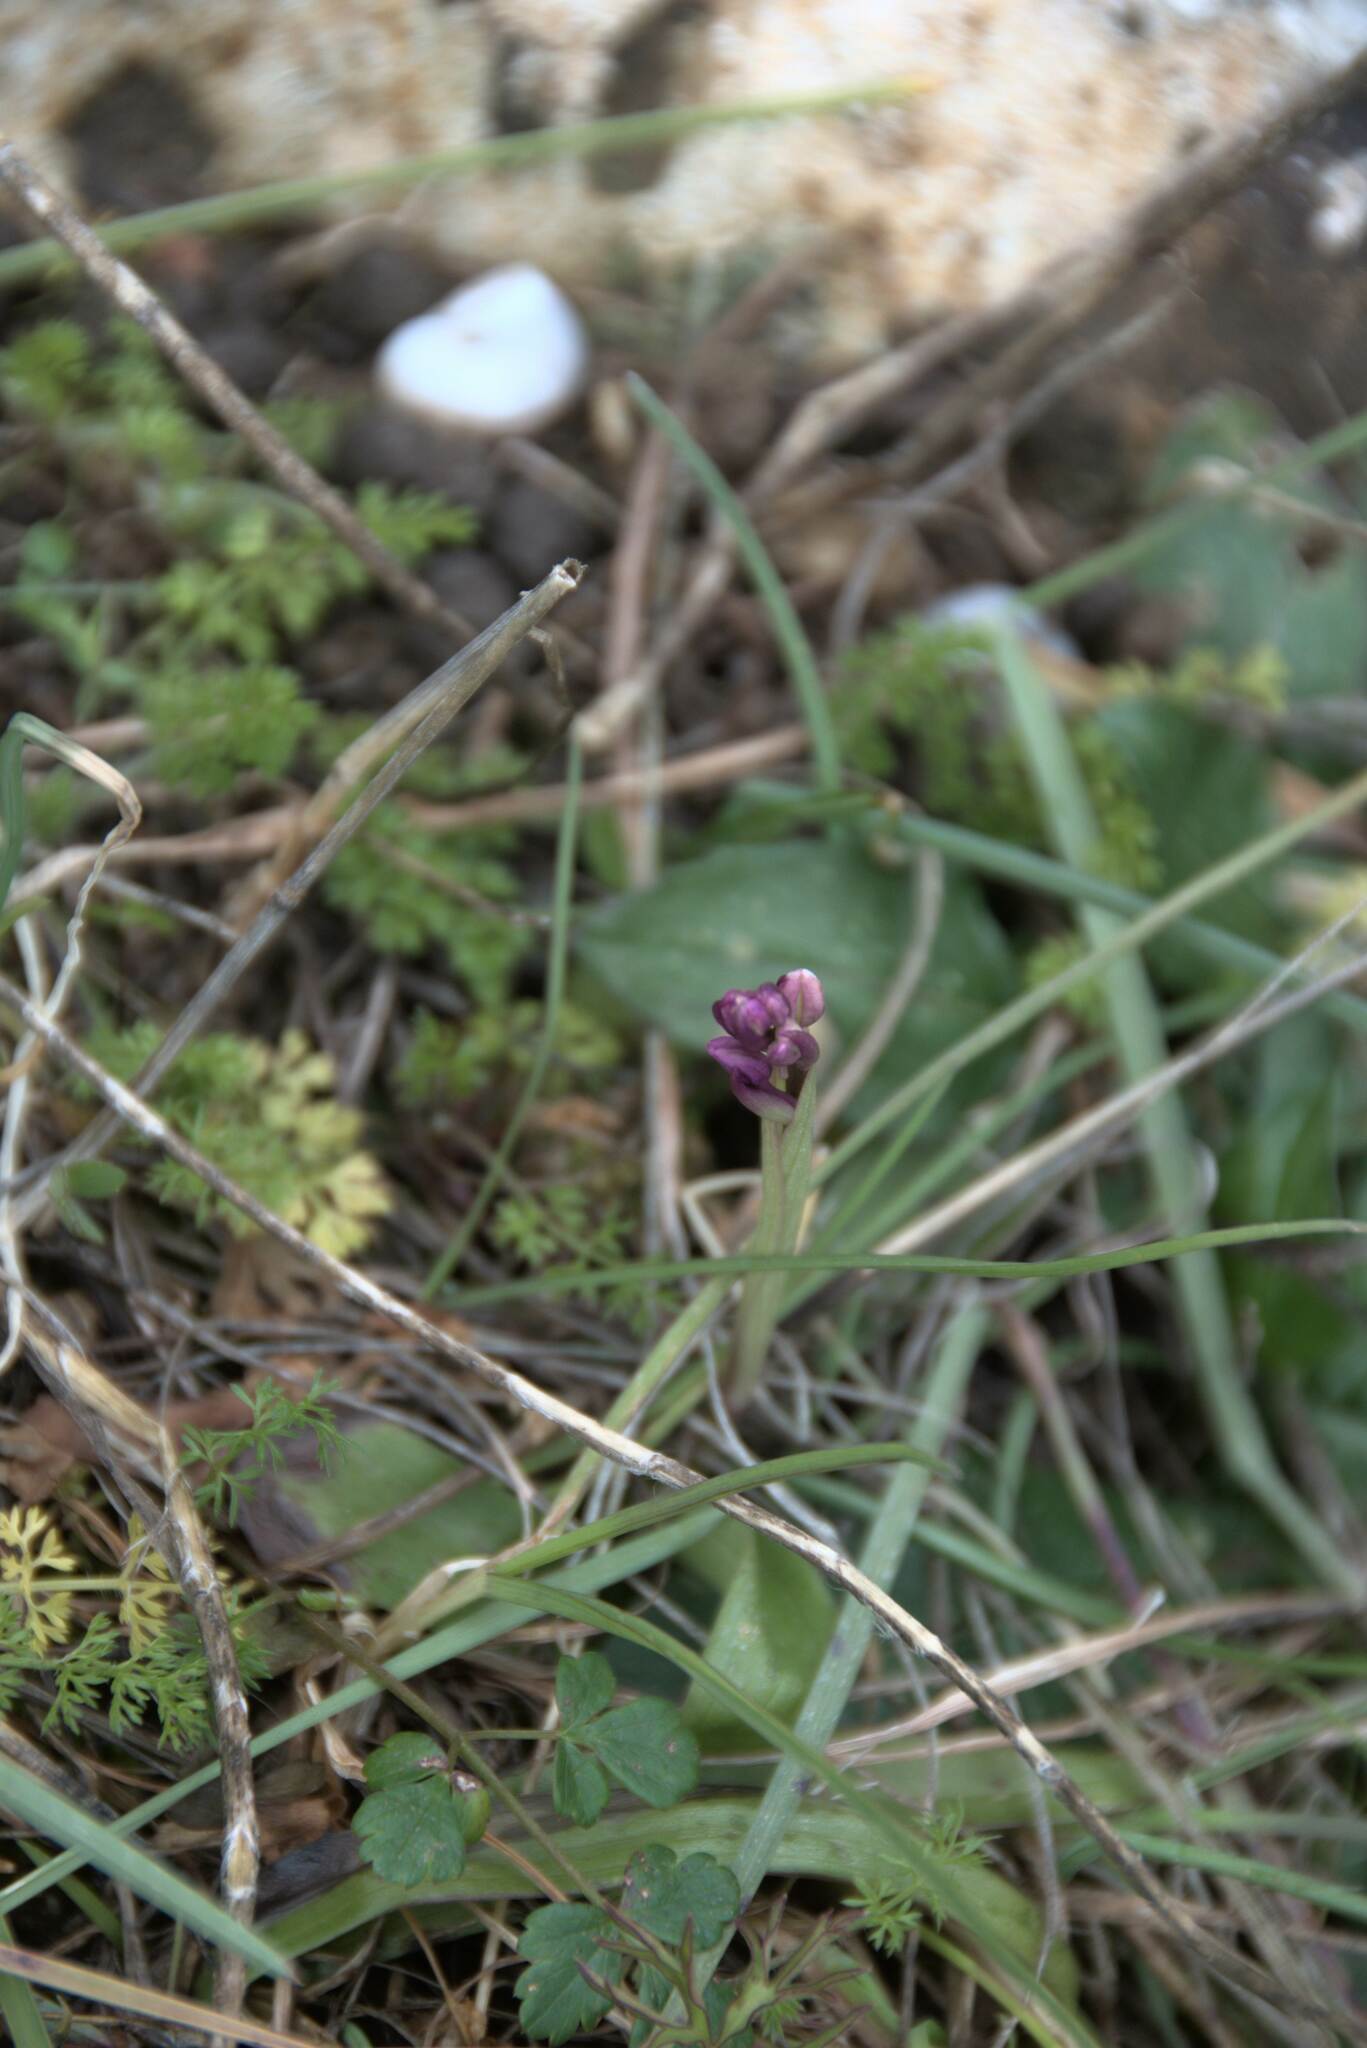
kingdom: Plantae
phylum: Tracheophyta
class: Liliopsida
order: Asparagales
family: Orchidaceae
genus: Orchis
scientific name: Orchis quadripunctata
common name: Four-spotted orchid
